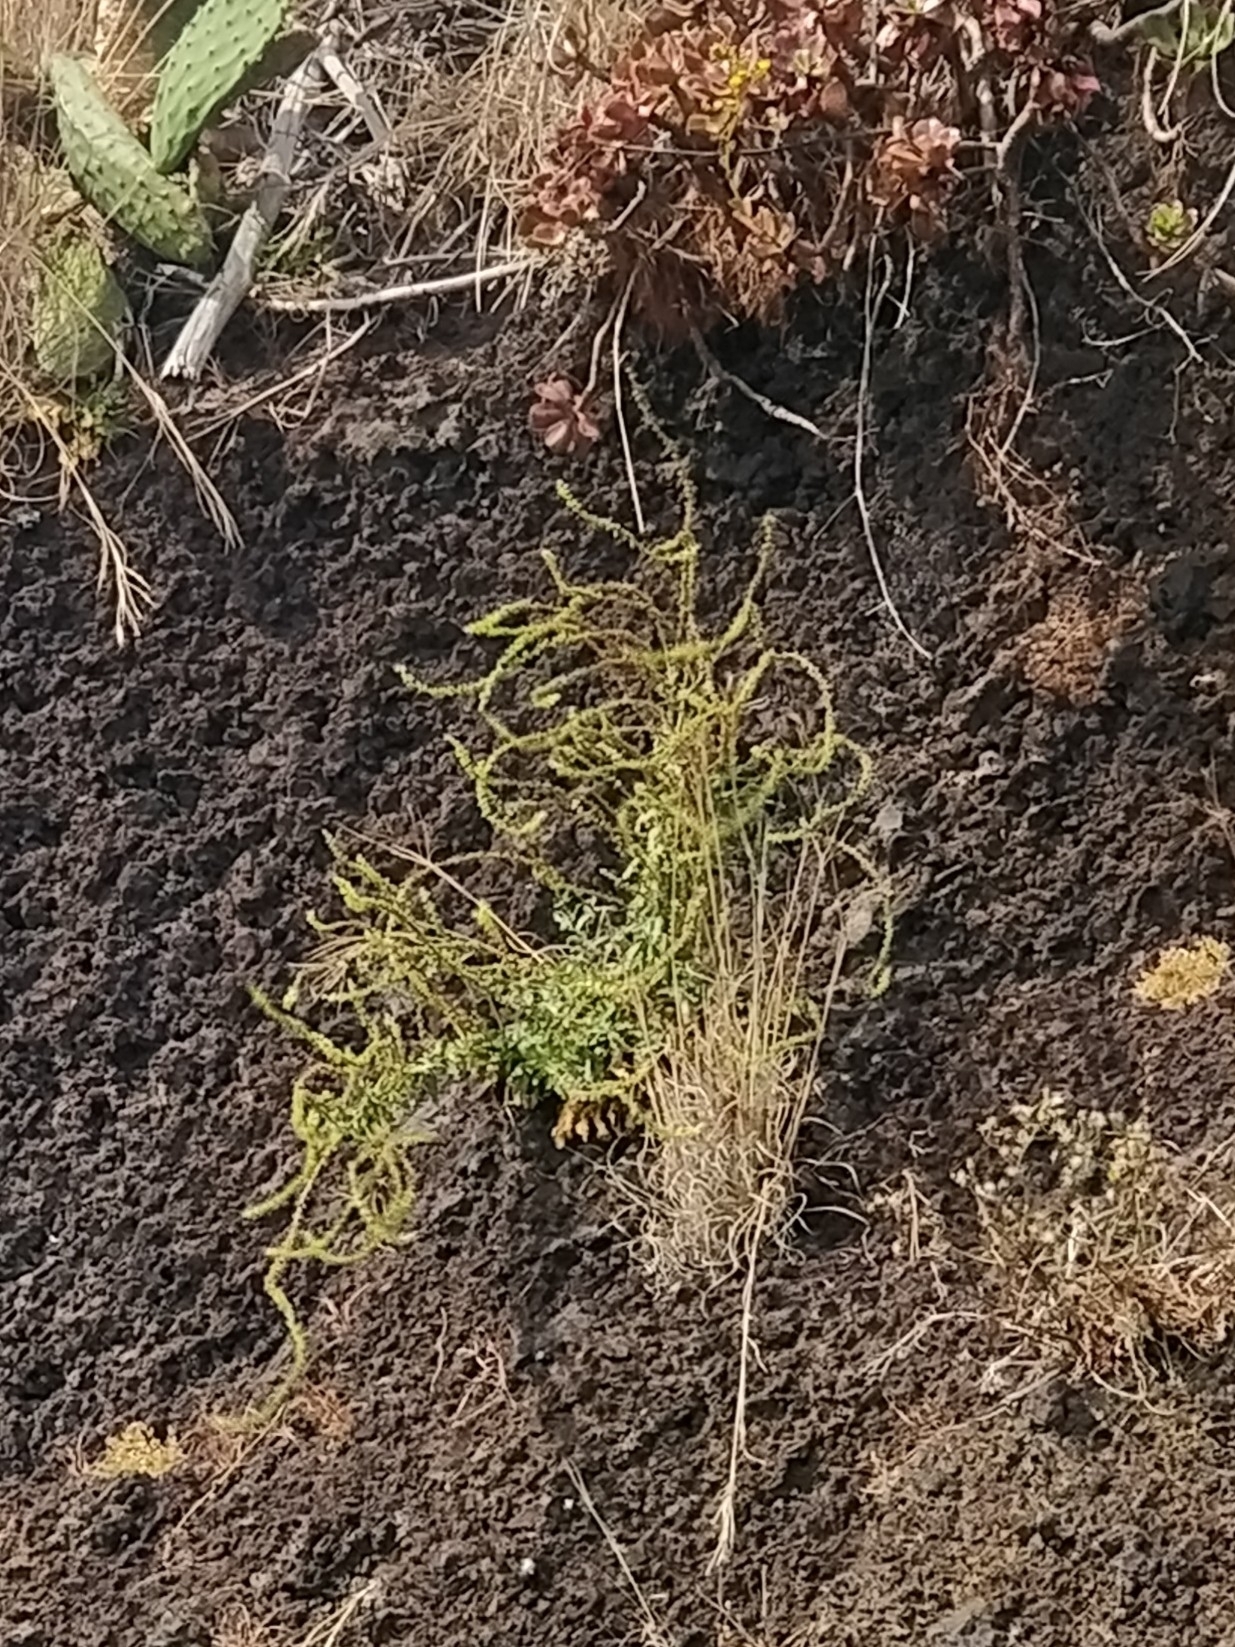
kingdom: Plantae
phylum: Tracheophyta
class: Magnoliopsida
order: Brassicales
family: Resedaceae
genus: Reseda
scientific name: Reseda luteola
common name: Weld
